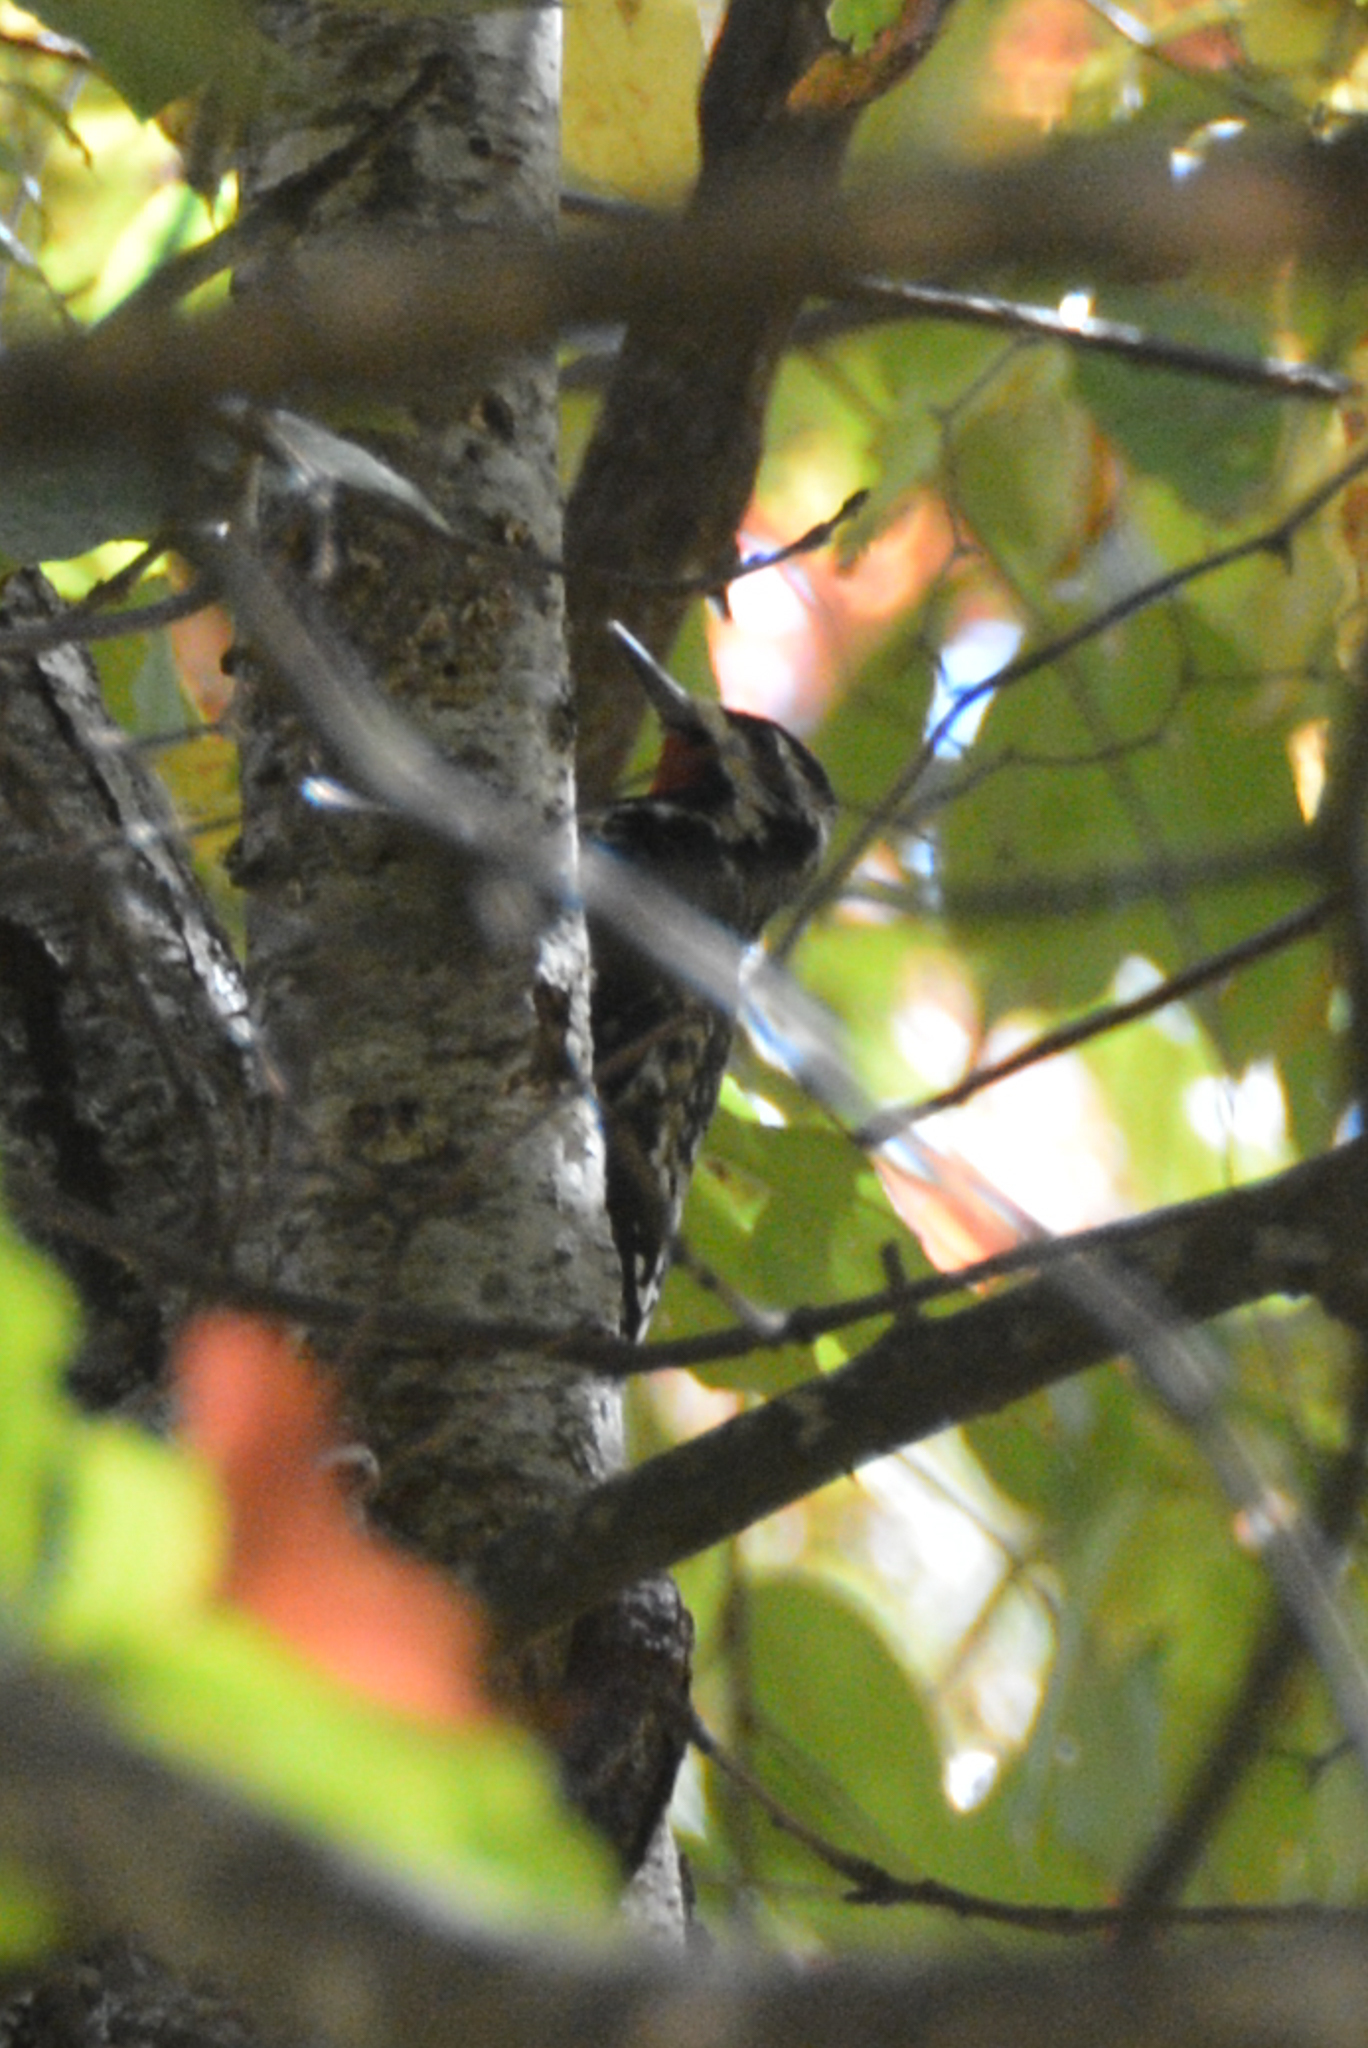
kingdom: Animalia
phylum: Chordata
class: Aves
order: Piciformes
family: Picidae
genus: Sphyrapicus
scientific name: Sphyrapicus varius
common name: Yellow-bellied sapsucker
